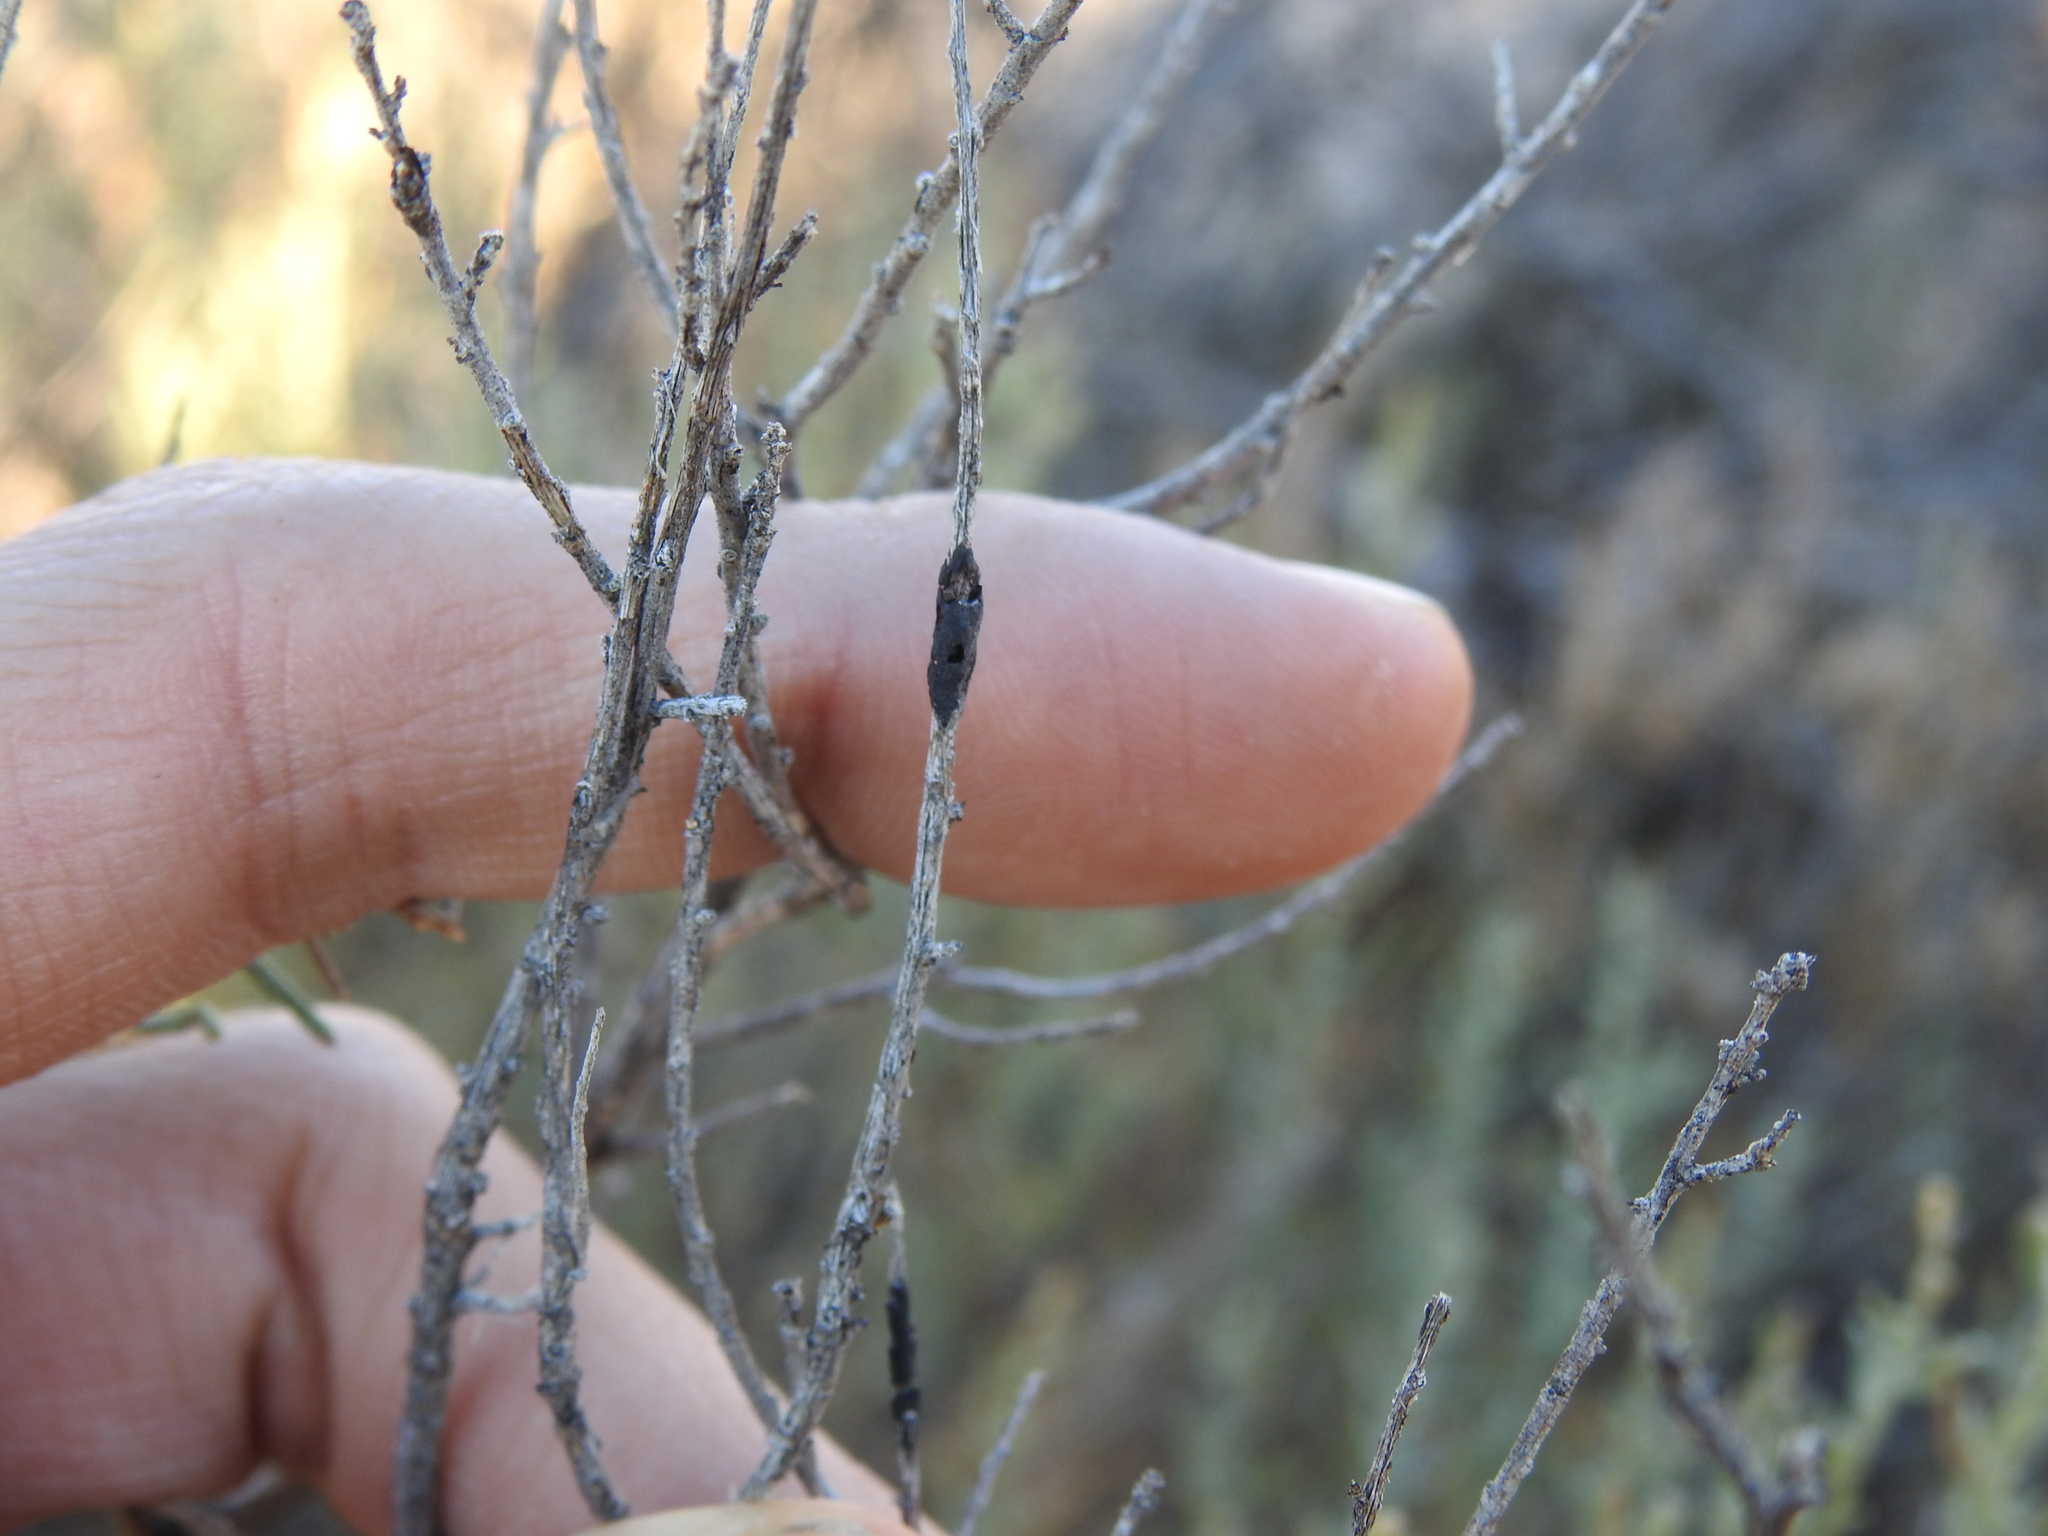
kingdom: Animalia
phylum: Arthropoda
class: Insecta
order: Diptera
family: Cecidomyiidae
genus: Asteromyia
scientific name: Asteromyia gutierreziae
